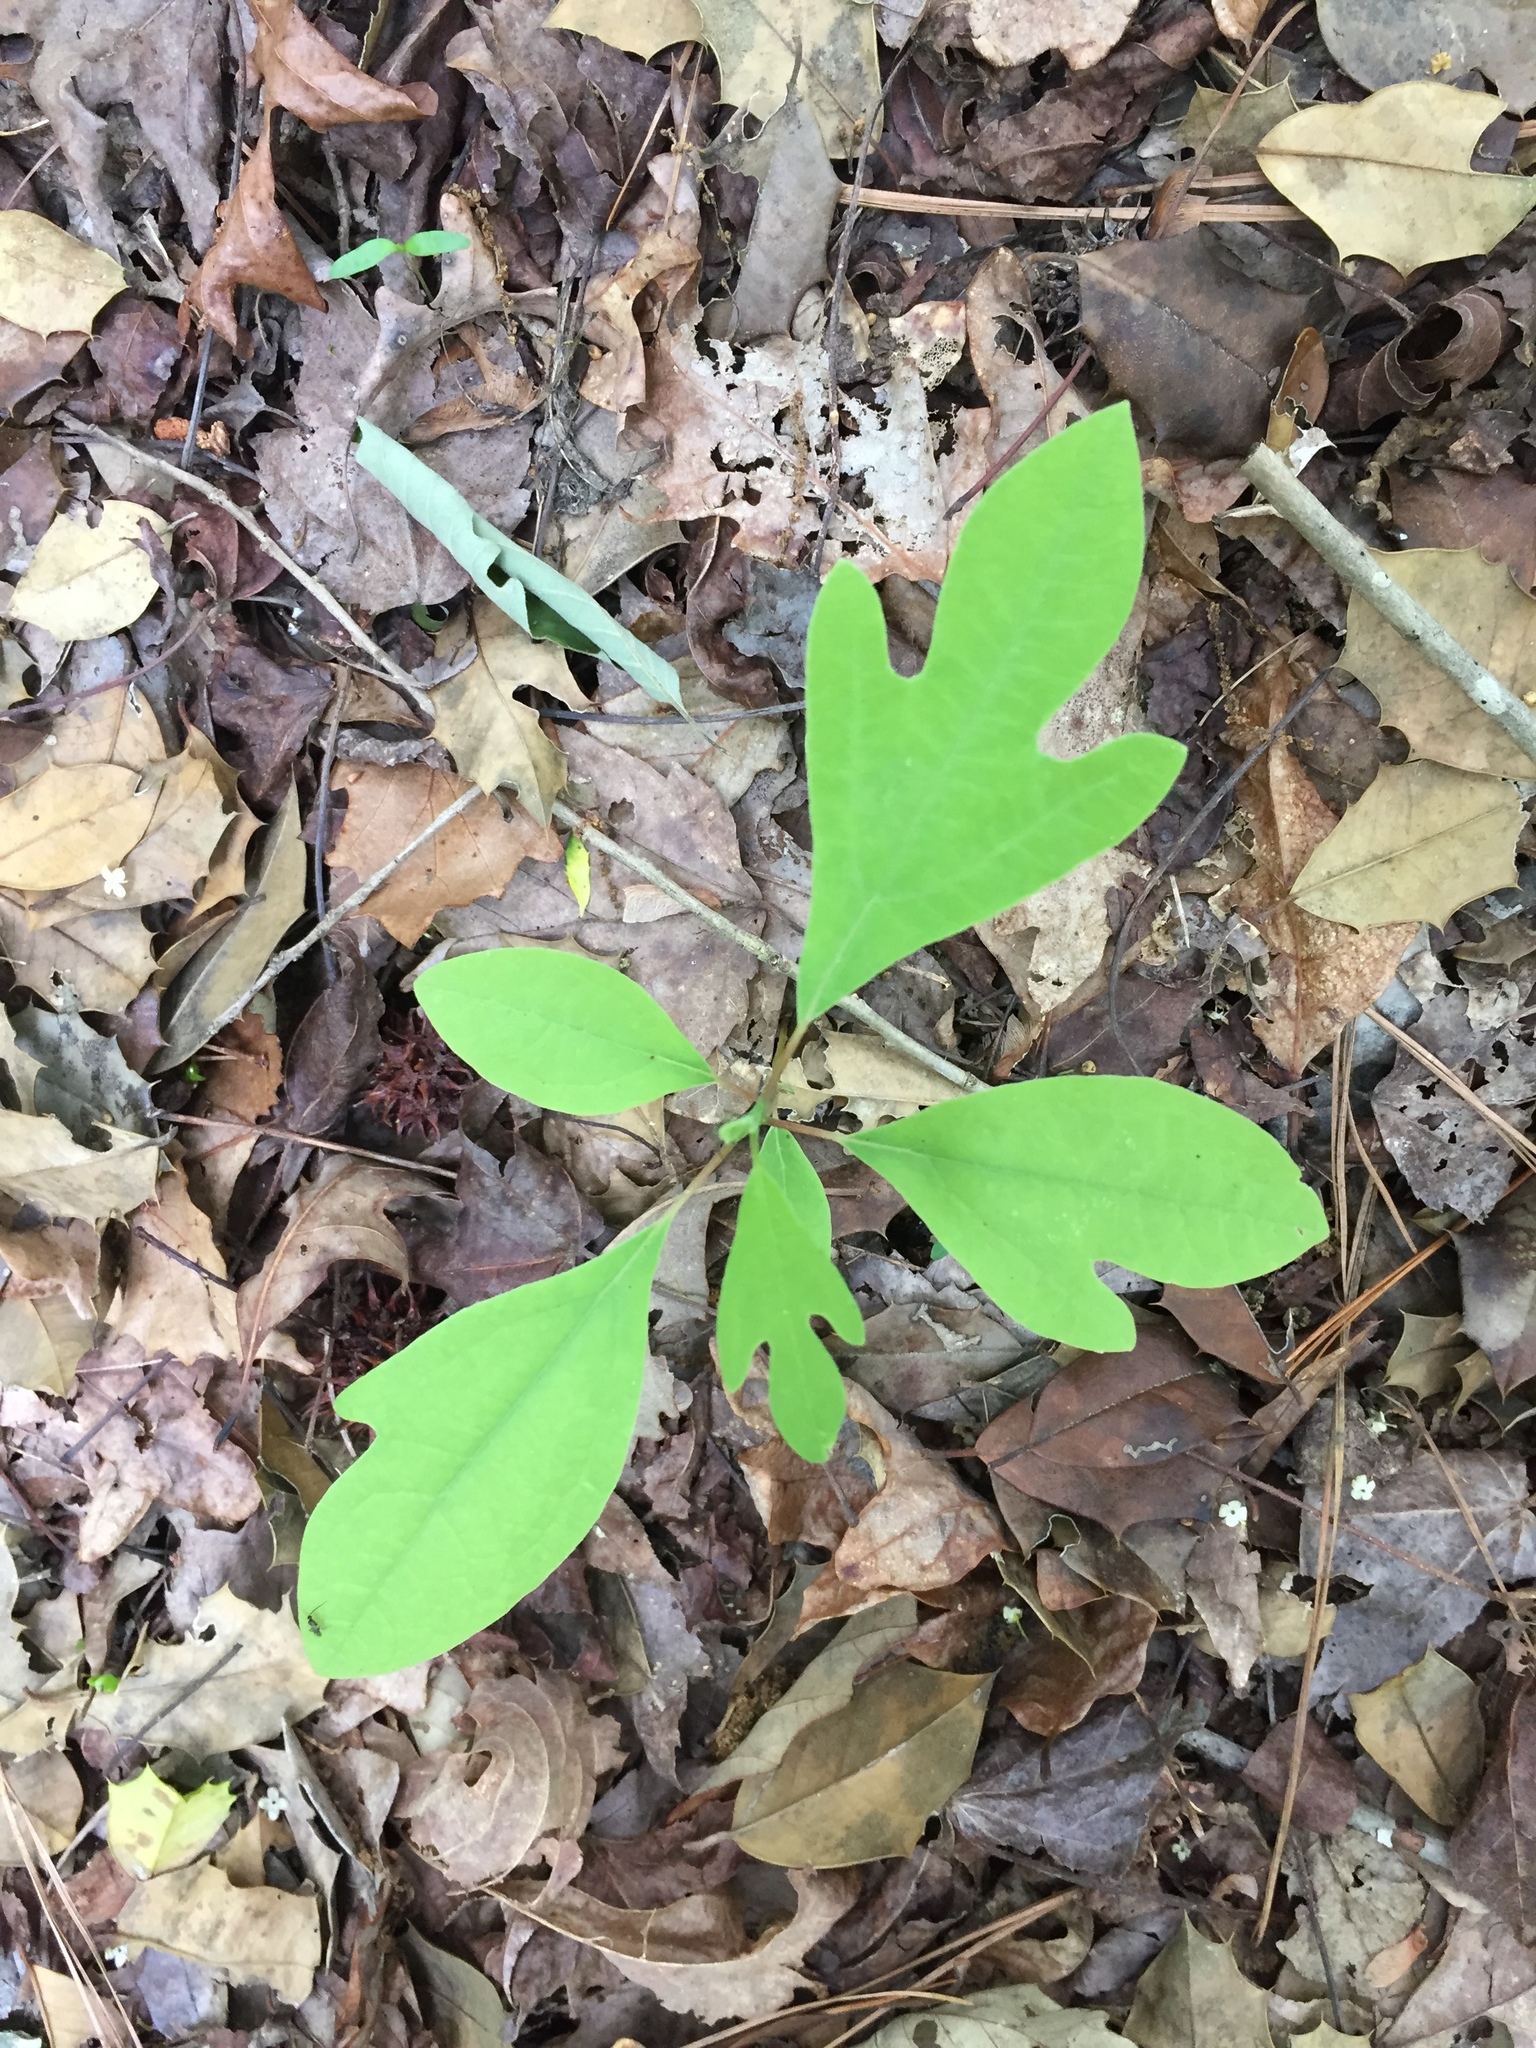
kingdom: Plantae
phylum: Tracheophyta
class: Magnoliopsida
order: Laurales
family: Lauraceae
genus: Sassafras
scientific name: Sassafras albidum
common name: Sassafras
